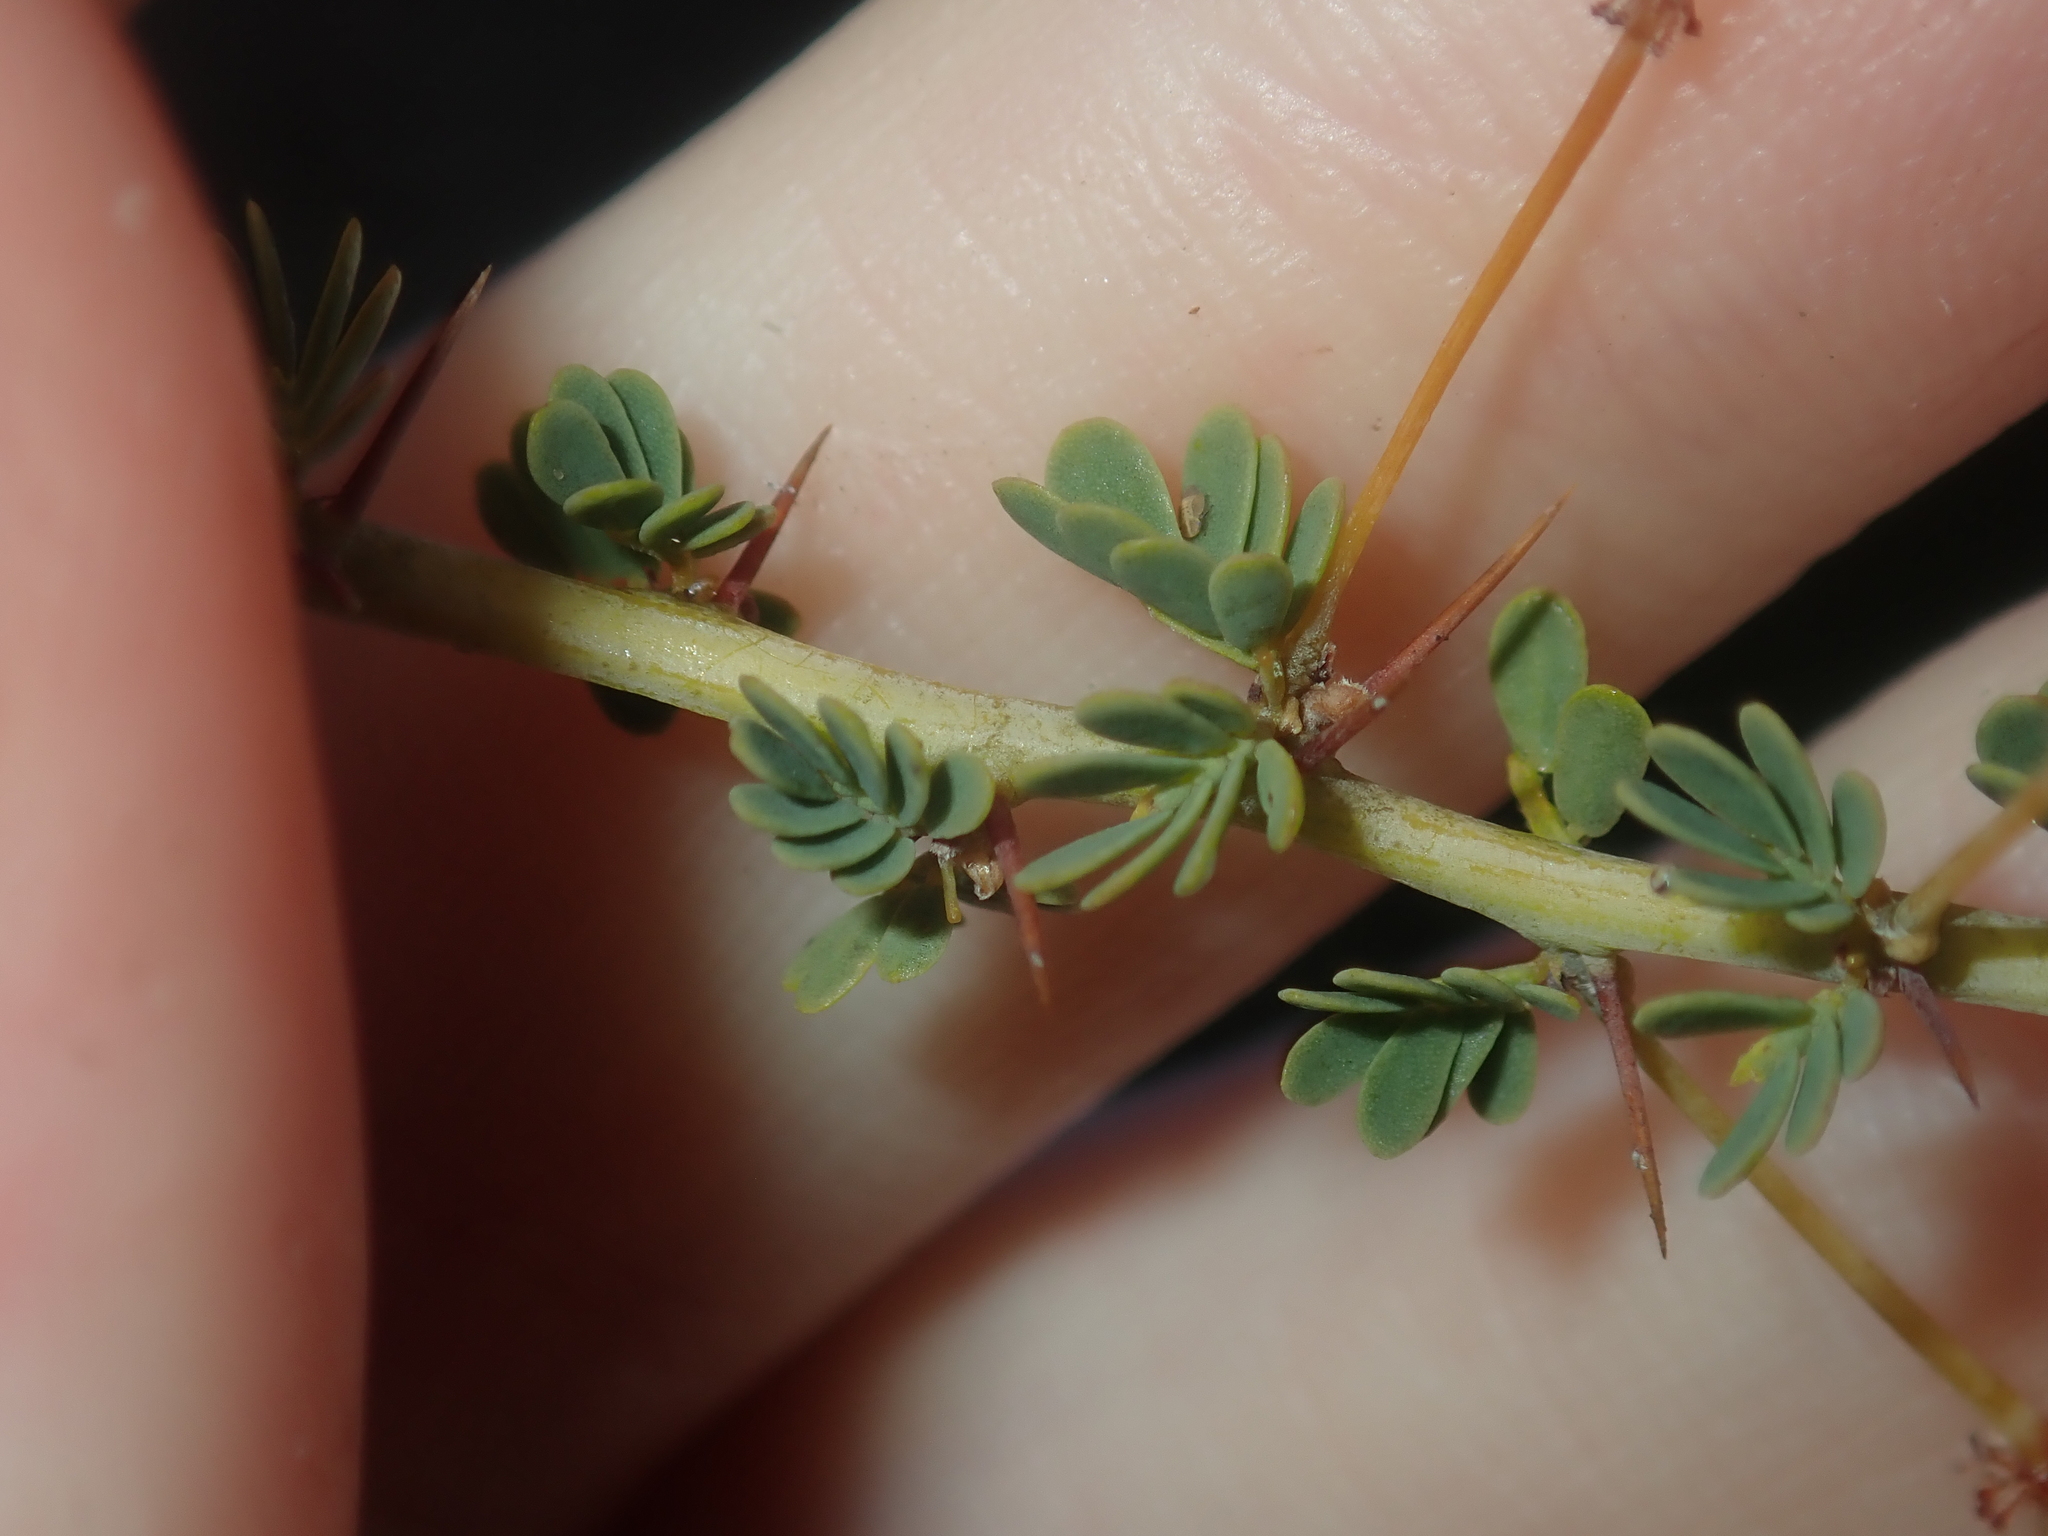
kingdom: Plantae
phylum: Tracheophyta
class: Magnoliopsida
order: Fabales
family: Fabaceae
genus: Acacia
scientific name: Acacia pulchella
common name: Prickly moses
